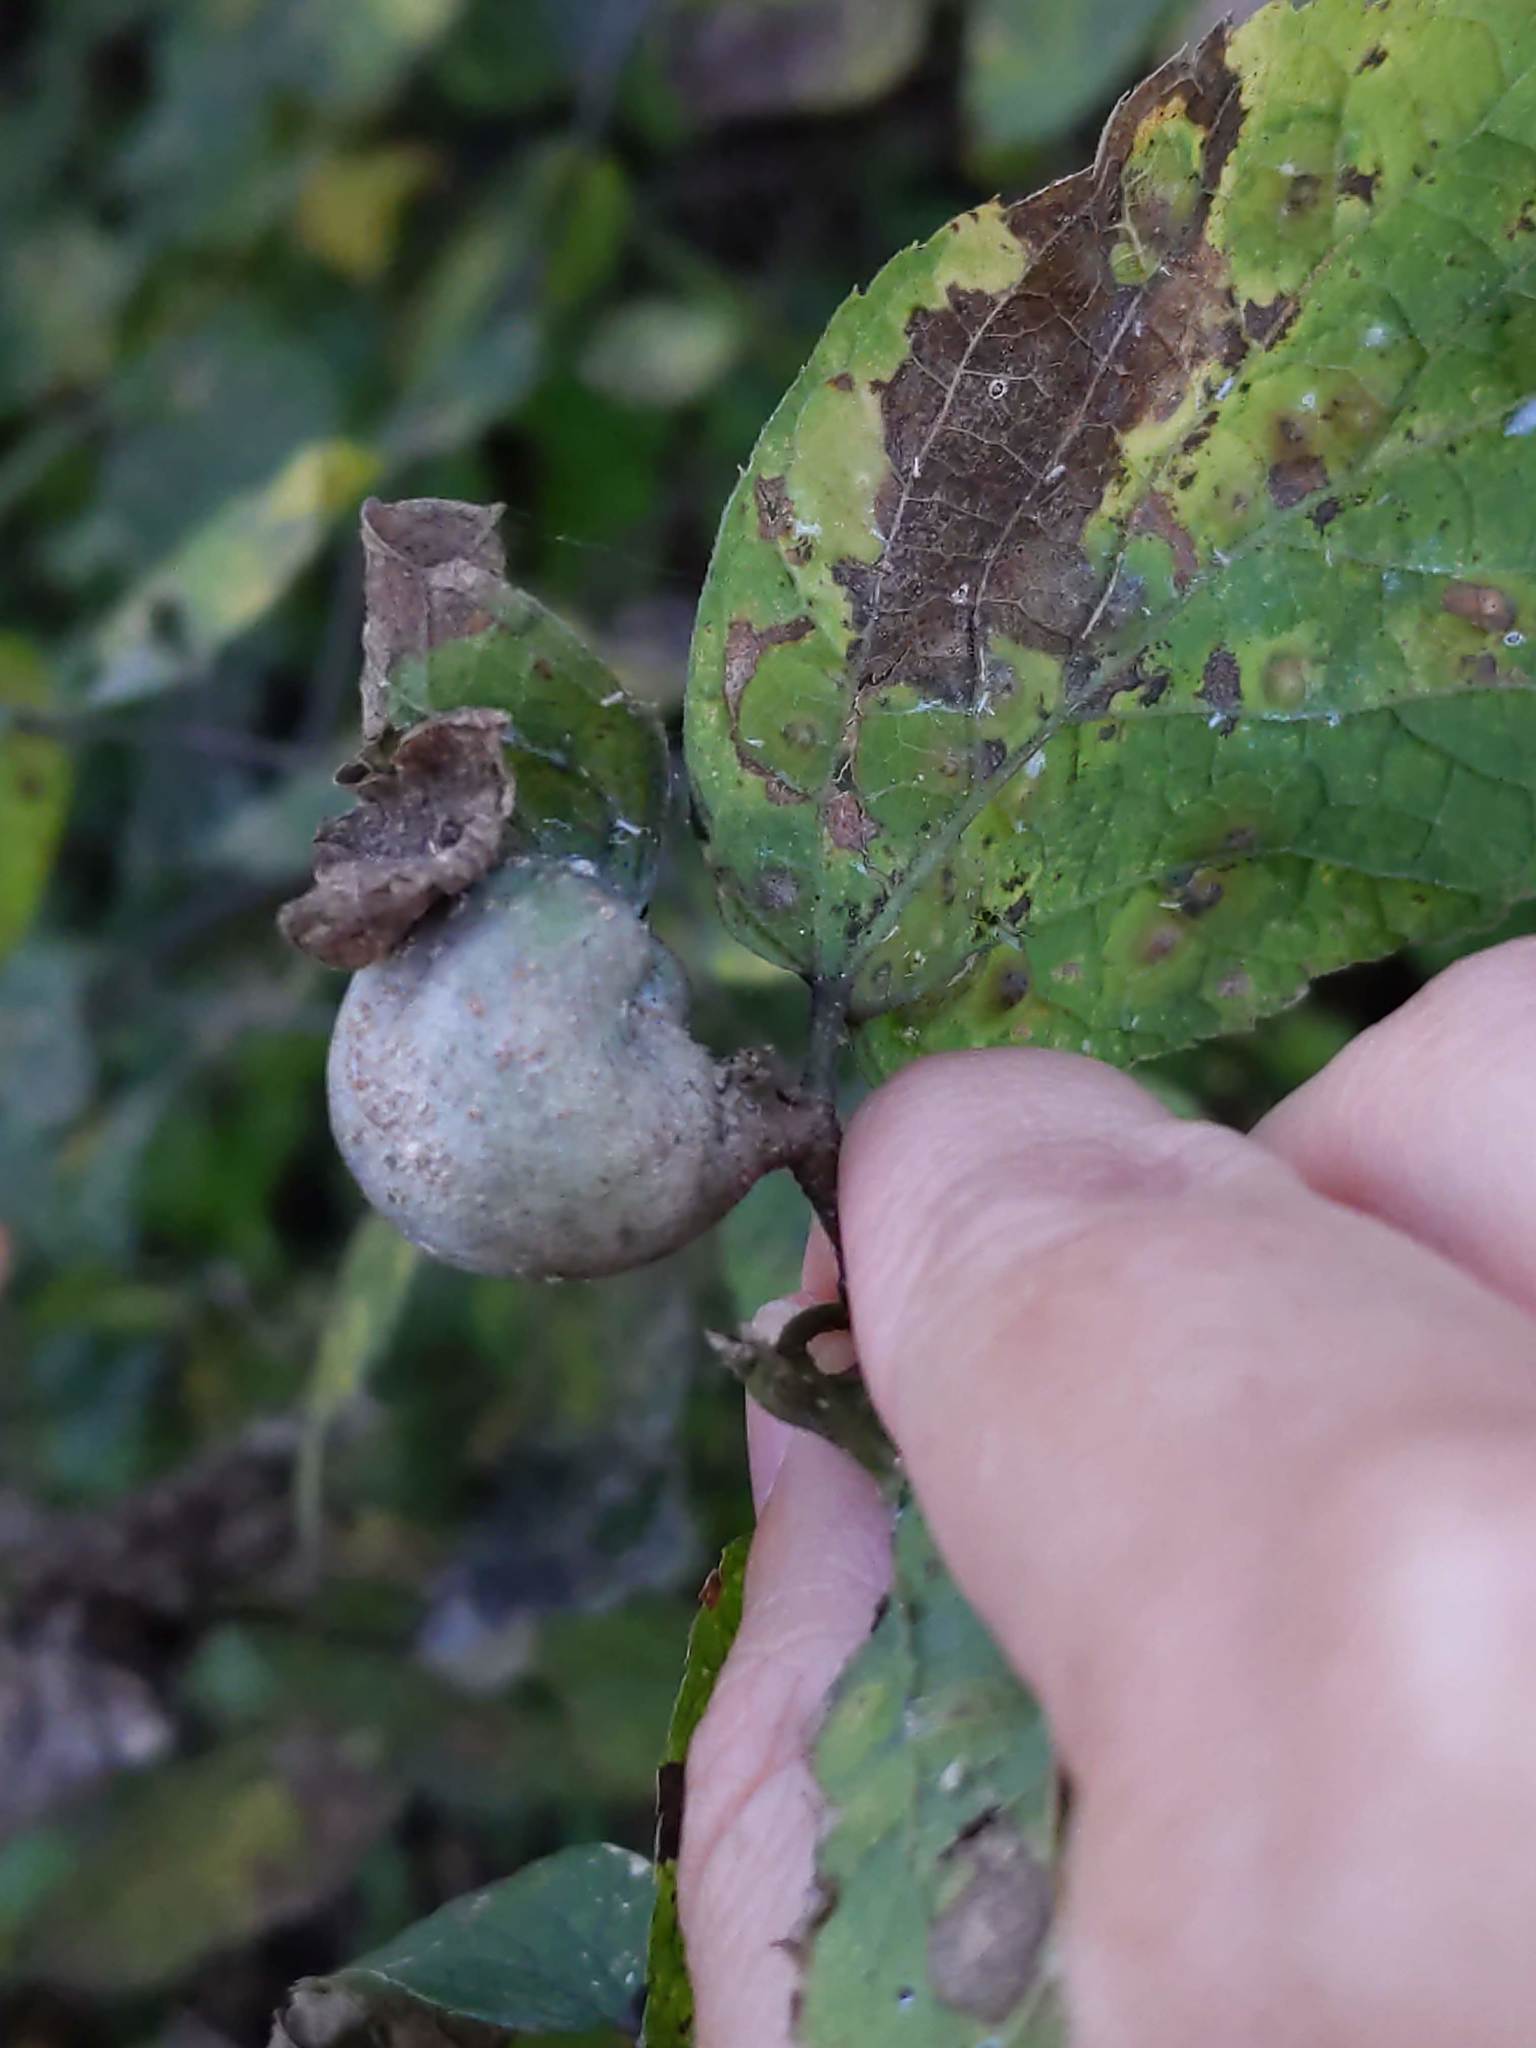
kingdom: Animalia
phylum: Arthropoda
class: Insecta
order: Hemiptera
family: Aphalaridae
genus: Pachypsylla
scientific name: Pachypsylla venusta
